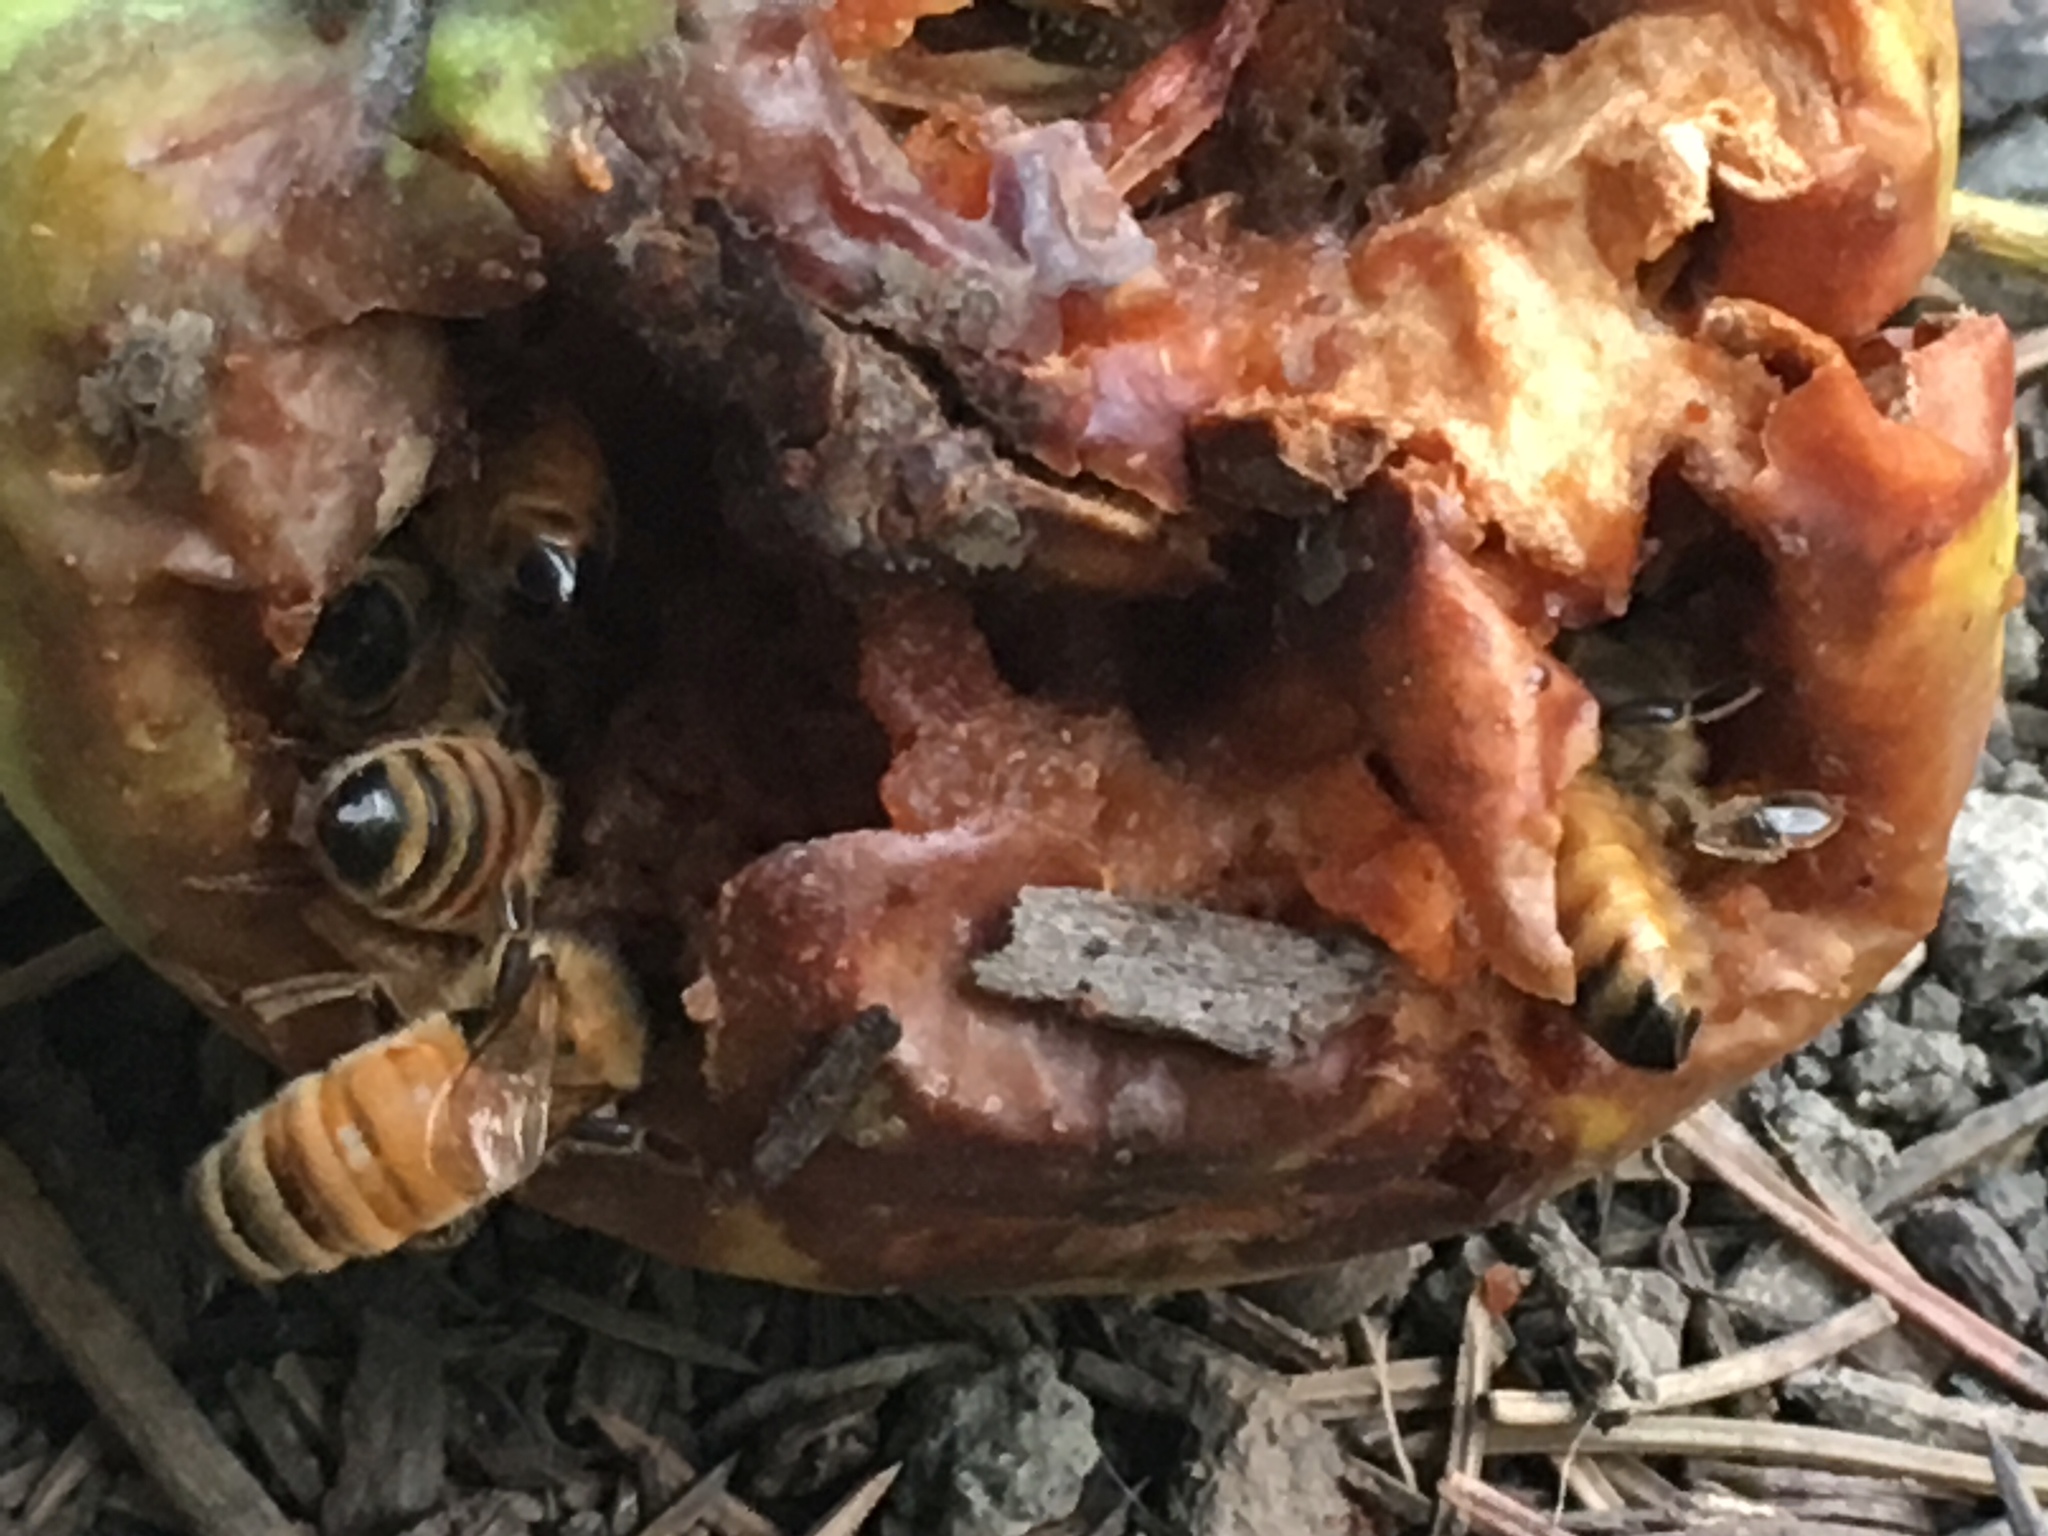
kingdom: Animalia
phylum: Arthropoda
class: Insecta
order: Hymenoptera
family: Apidae
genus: Apis
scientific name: Apis mellifera
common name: Honey bee
